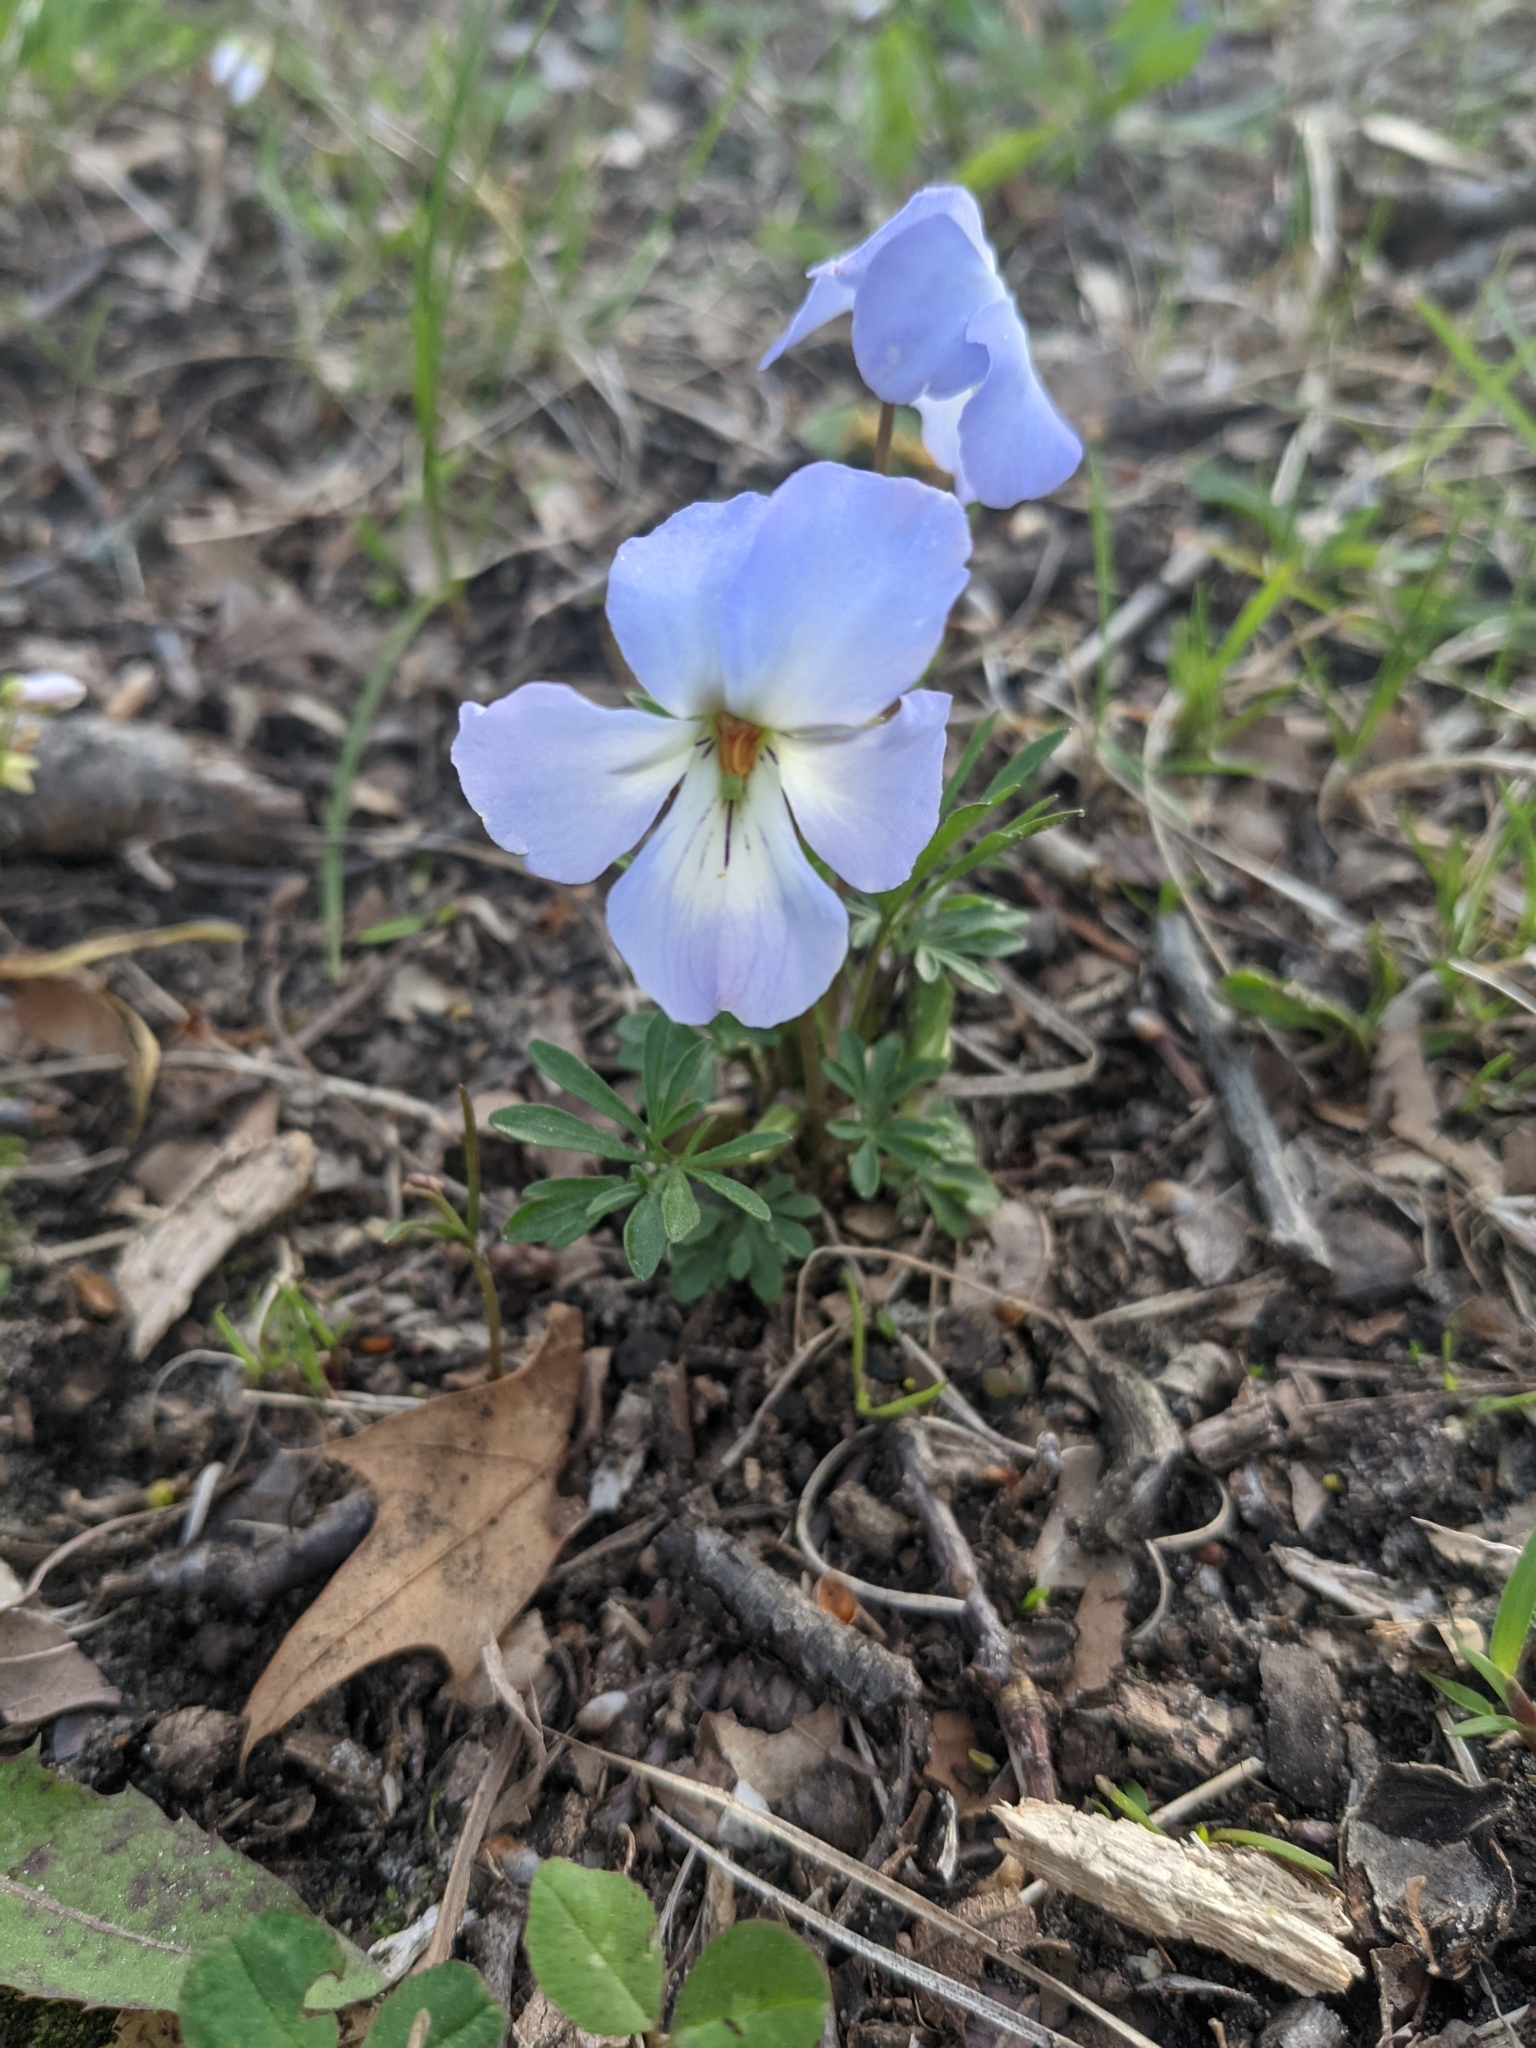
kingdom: Plantae
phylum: Tracheophyta
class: Magnoliopsida
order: Malpighiales
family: Violaceae
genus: Viola
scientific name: Viola pedata
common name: Pansy violet
